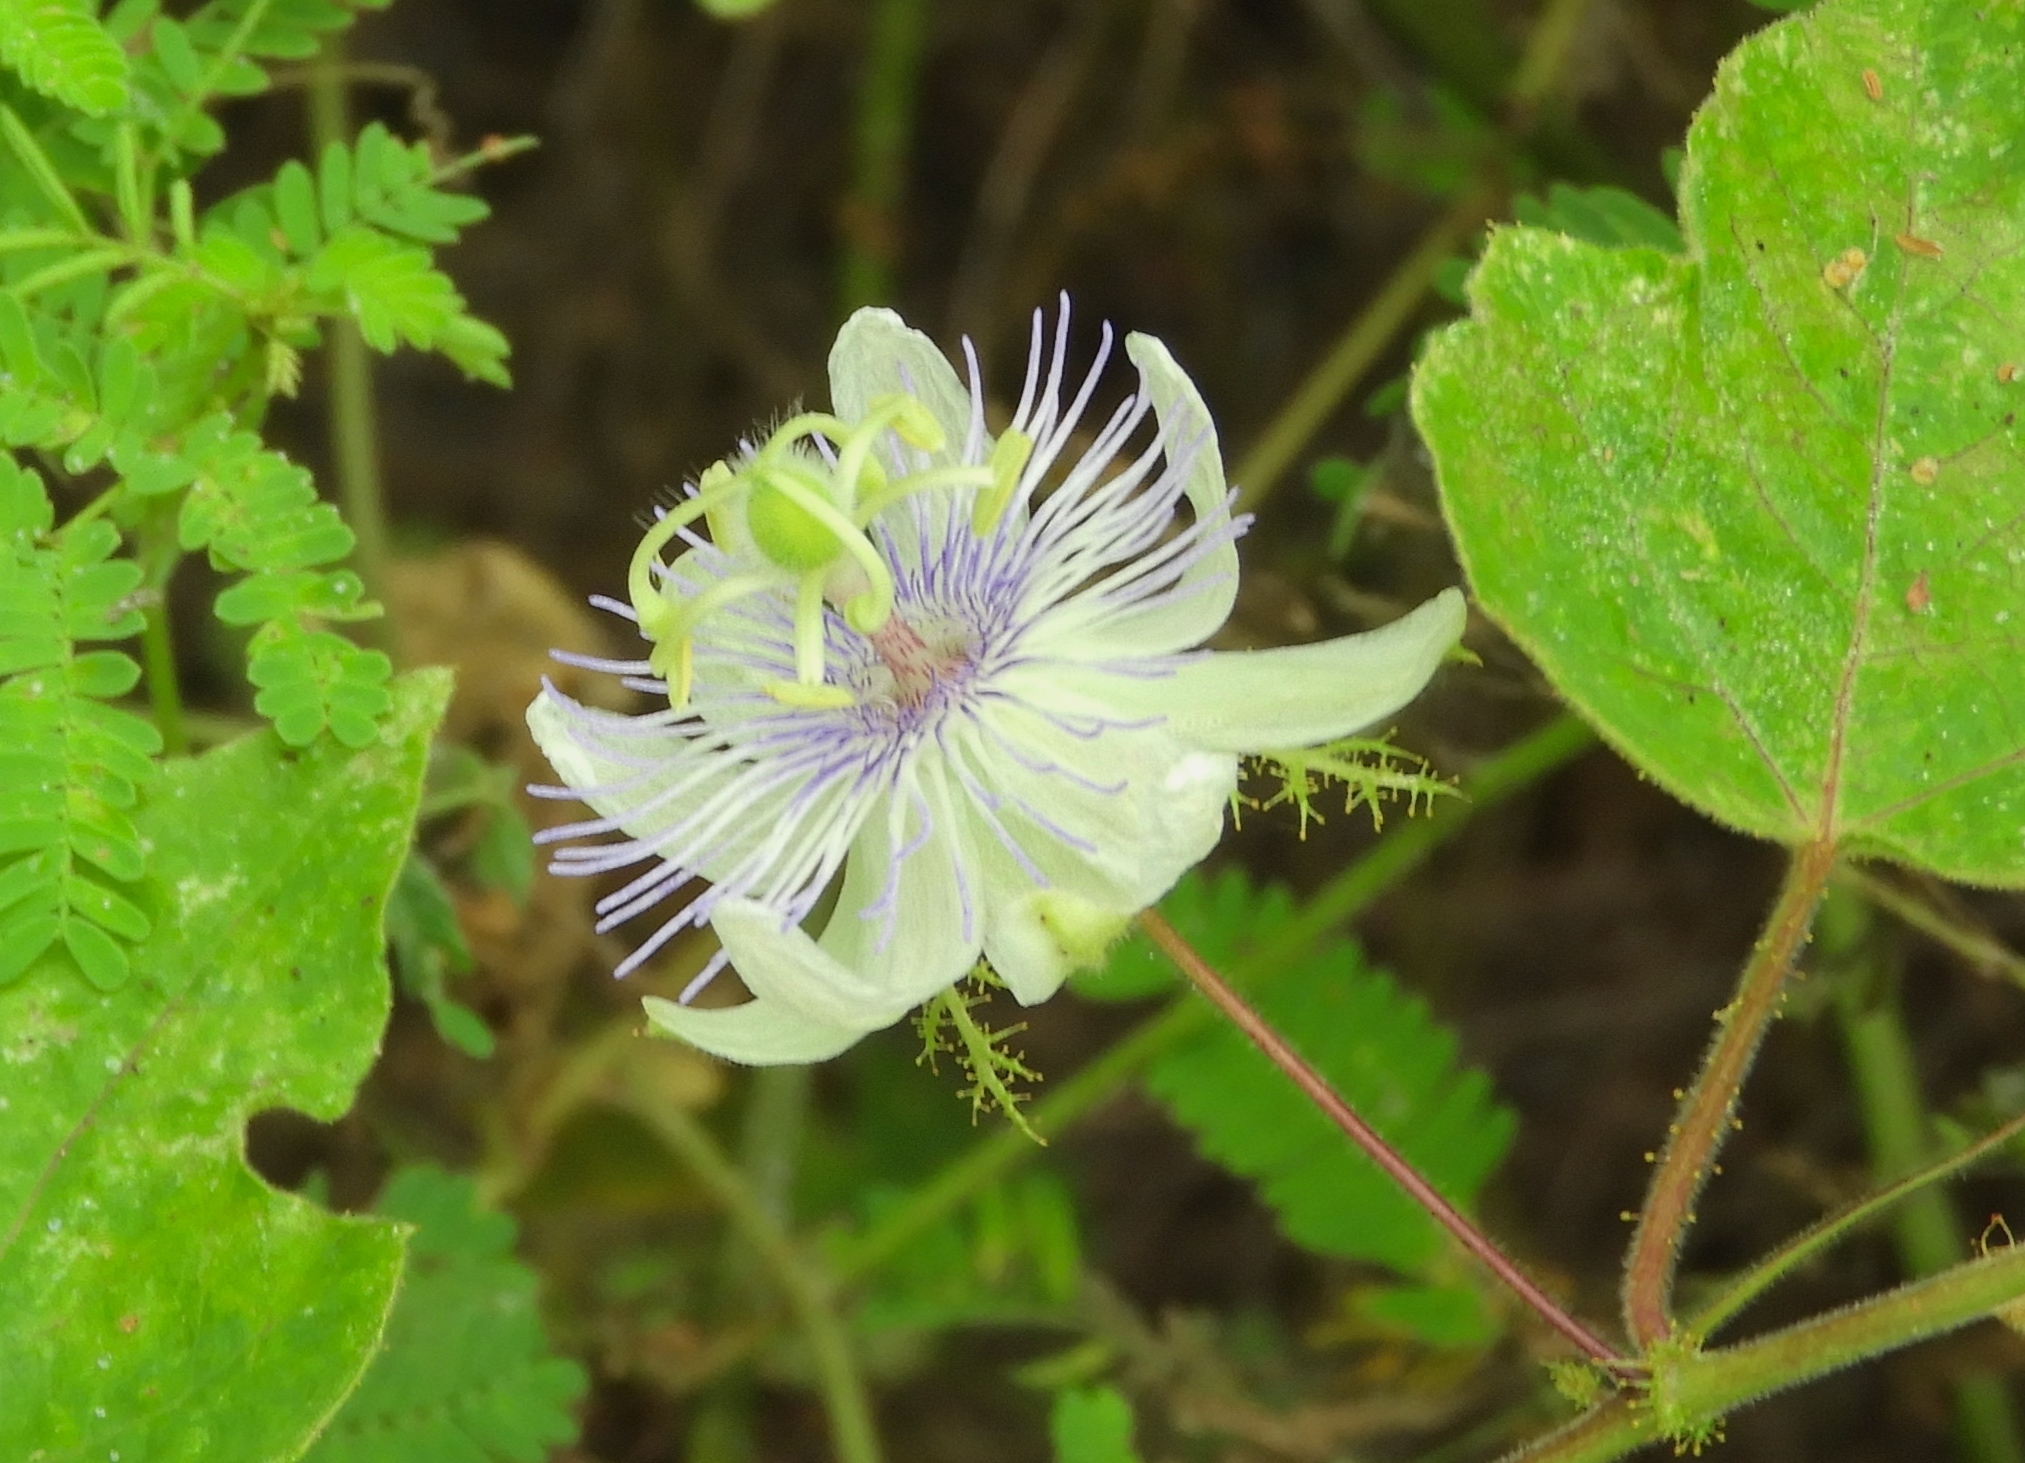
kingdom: Plantae
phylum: Tracheophyta
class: Magnoliopsida
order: Malpighiales
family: Passifloraceae
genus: Passiflora
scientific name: Passiflora foetida
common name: Fetid passionflower
